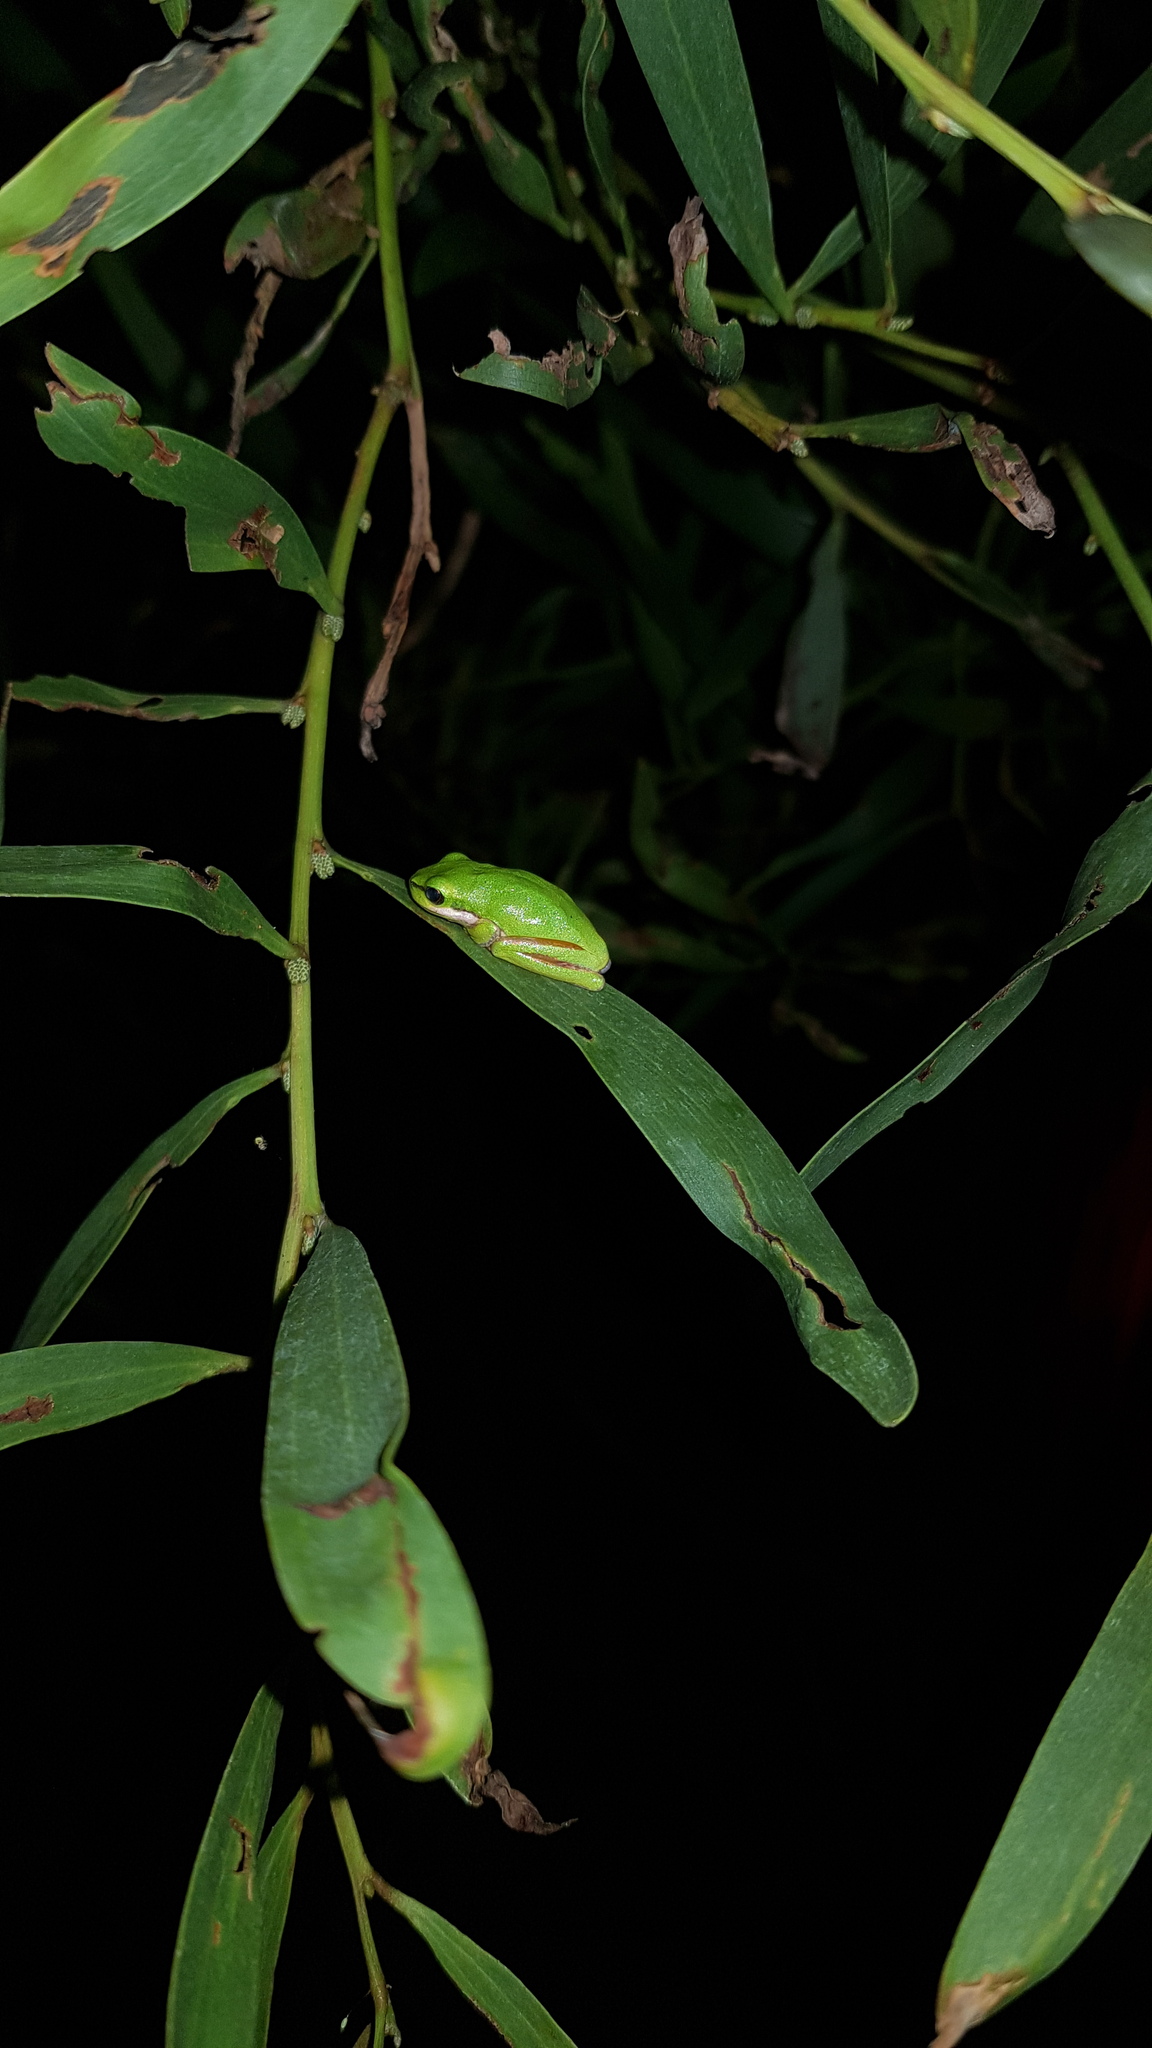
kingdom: Animalia
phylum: Chordata
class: Amphibia
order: Anura
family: Pelodryadidae
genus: Litoria
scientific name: Litoria fallax
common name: Eastern dwarf treefrog
